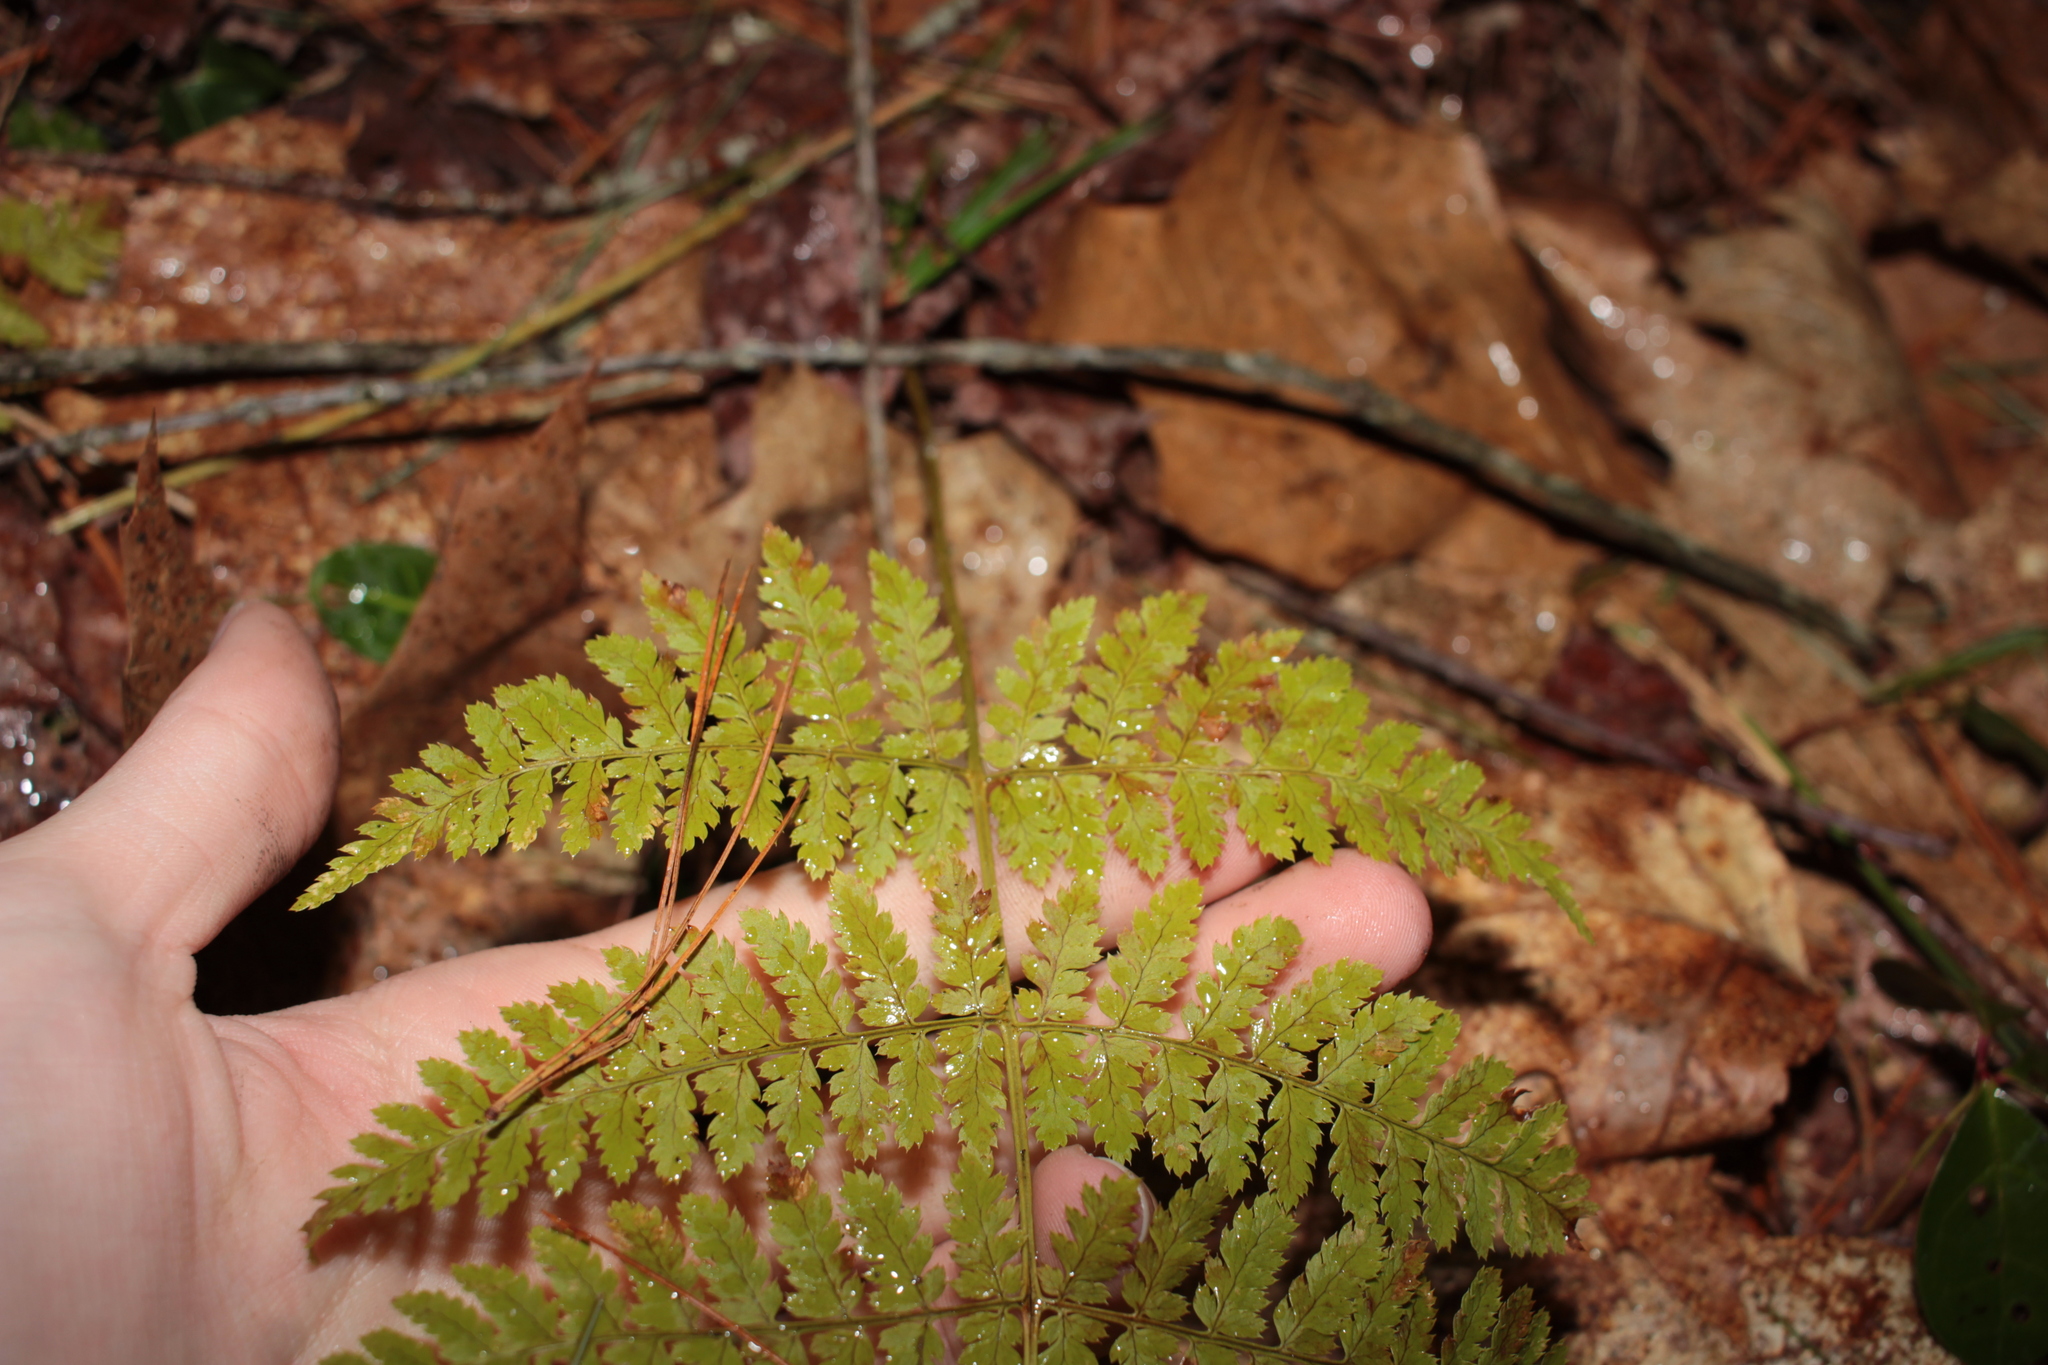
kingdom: Plantae
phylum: Tracheophyta
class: Polypodiopsida
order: Polypodiales
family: Dryopteridaceae
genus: Dryopteris
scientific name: Dryopteris intermedia
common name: Evergreen wood fern
